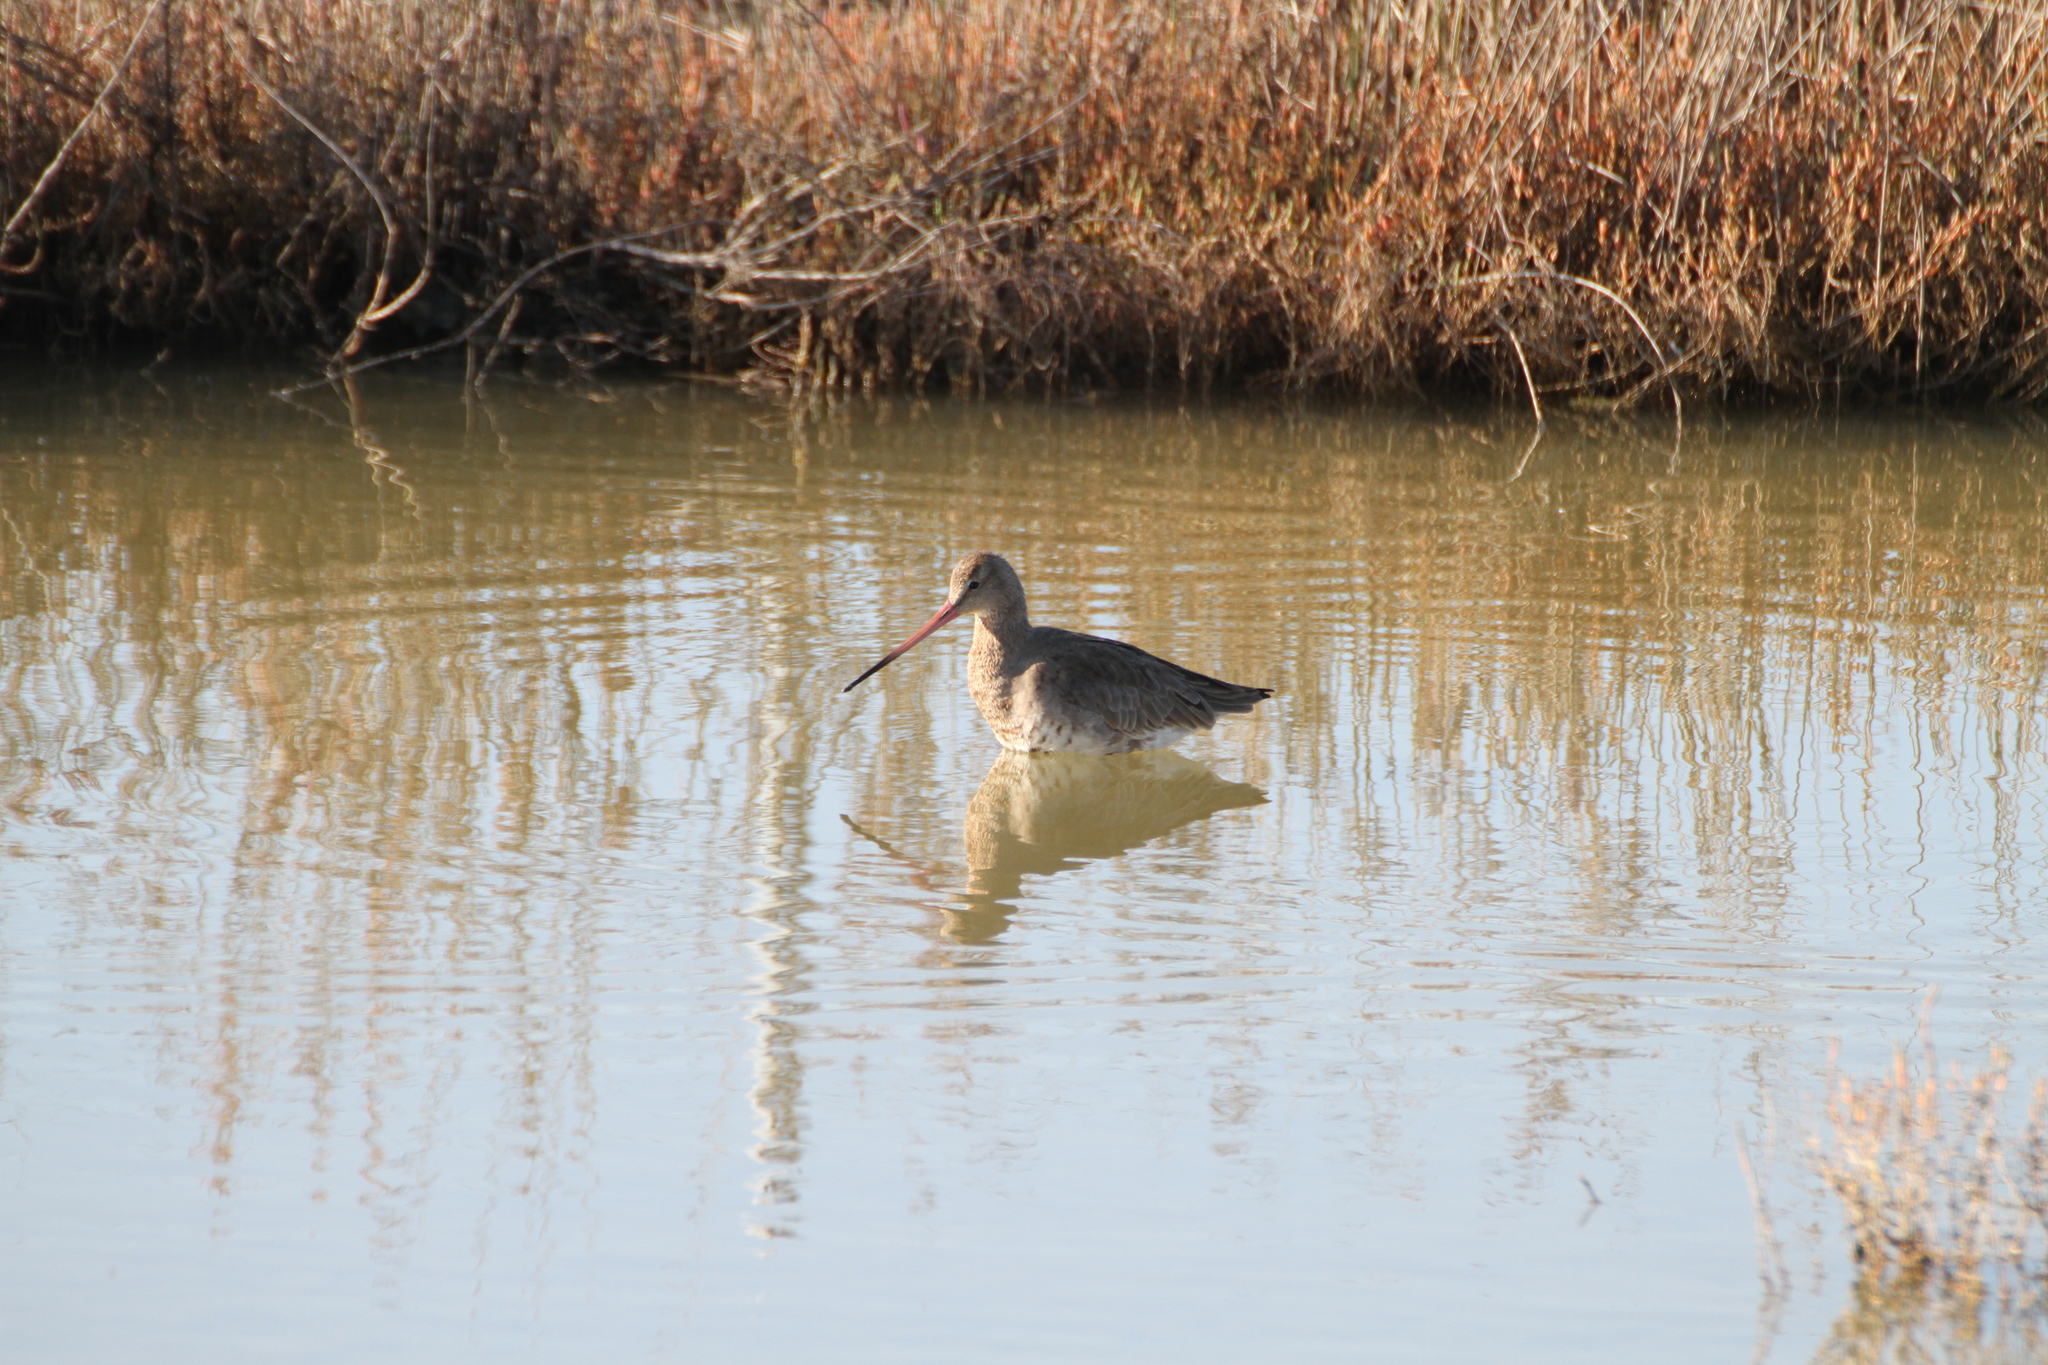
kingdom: Animalia
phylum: Chordata
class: Aves
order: Charadriiformes
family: Scolopacidae
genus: Limosa
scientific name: Limosa limosa
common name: Black-tailed godwit
